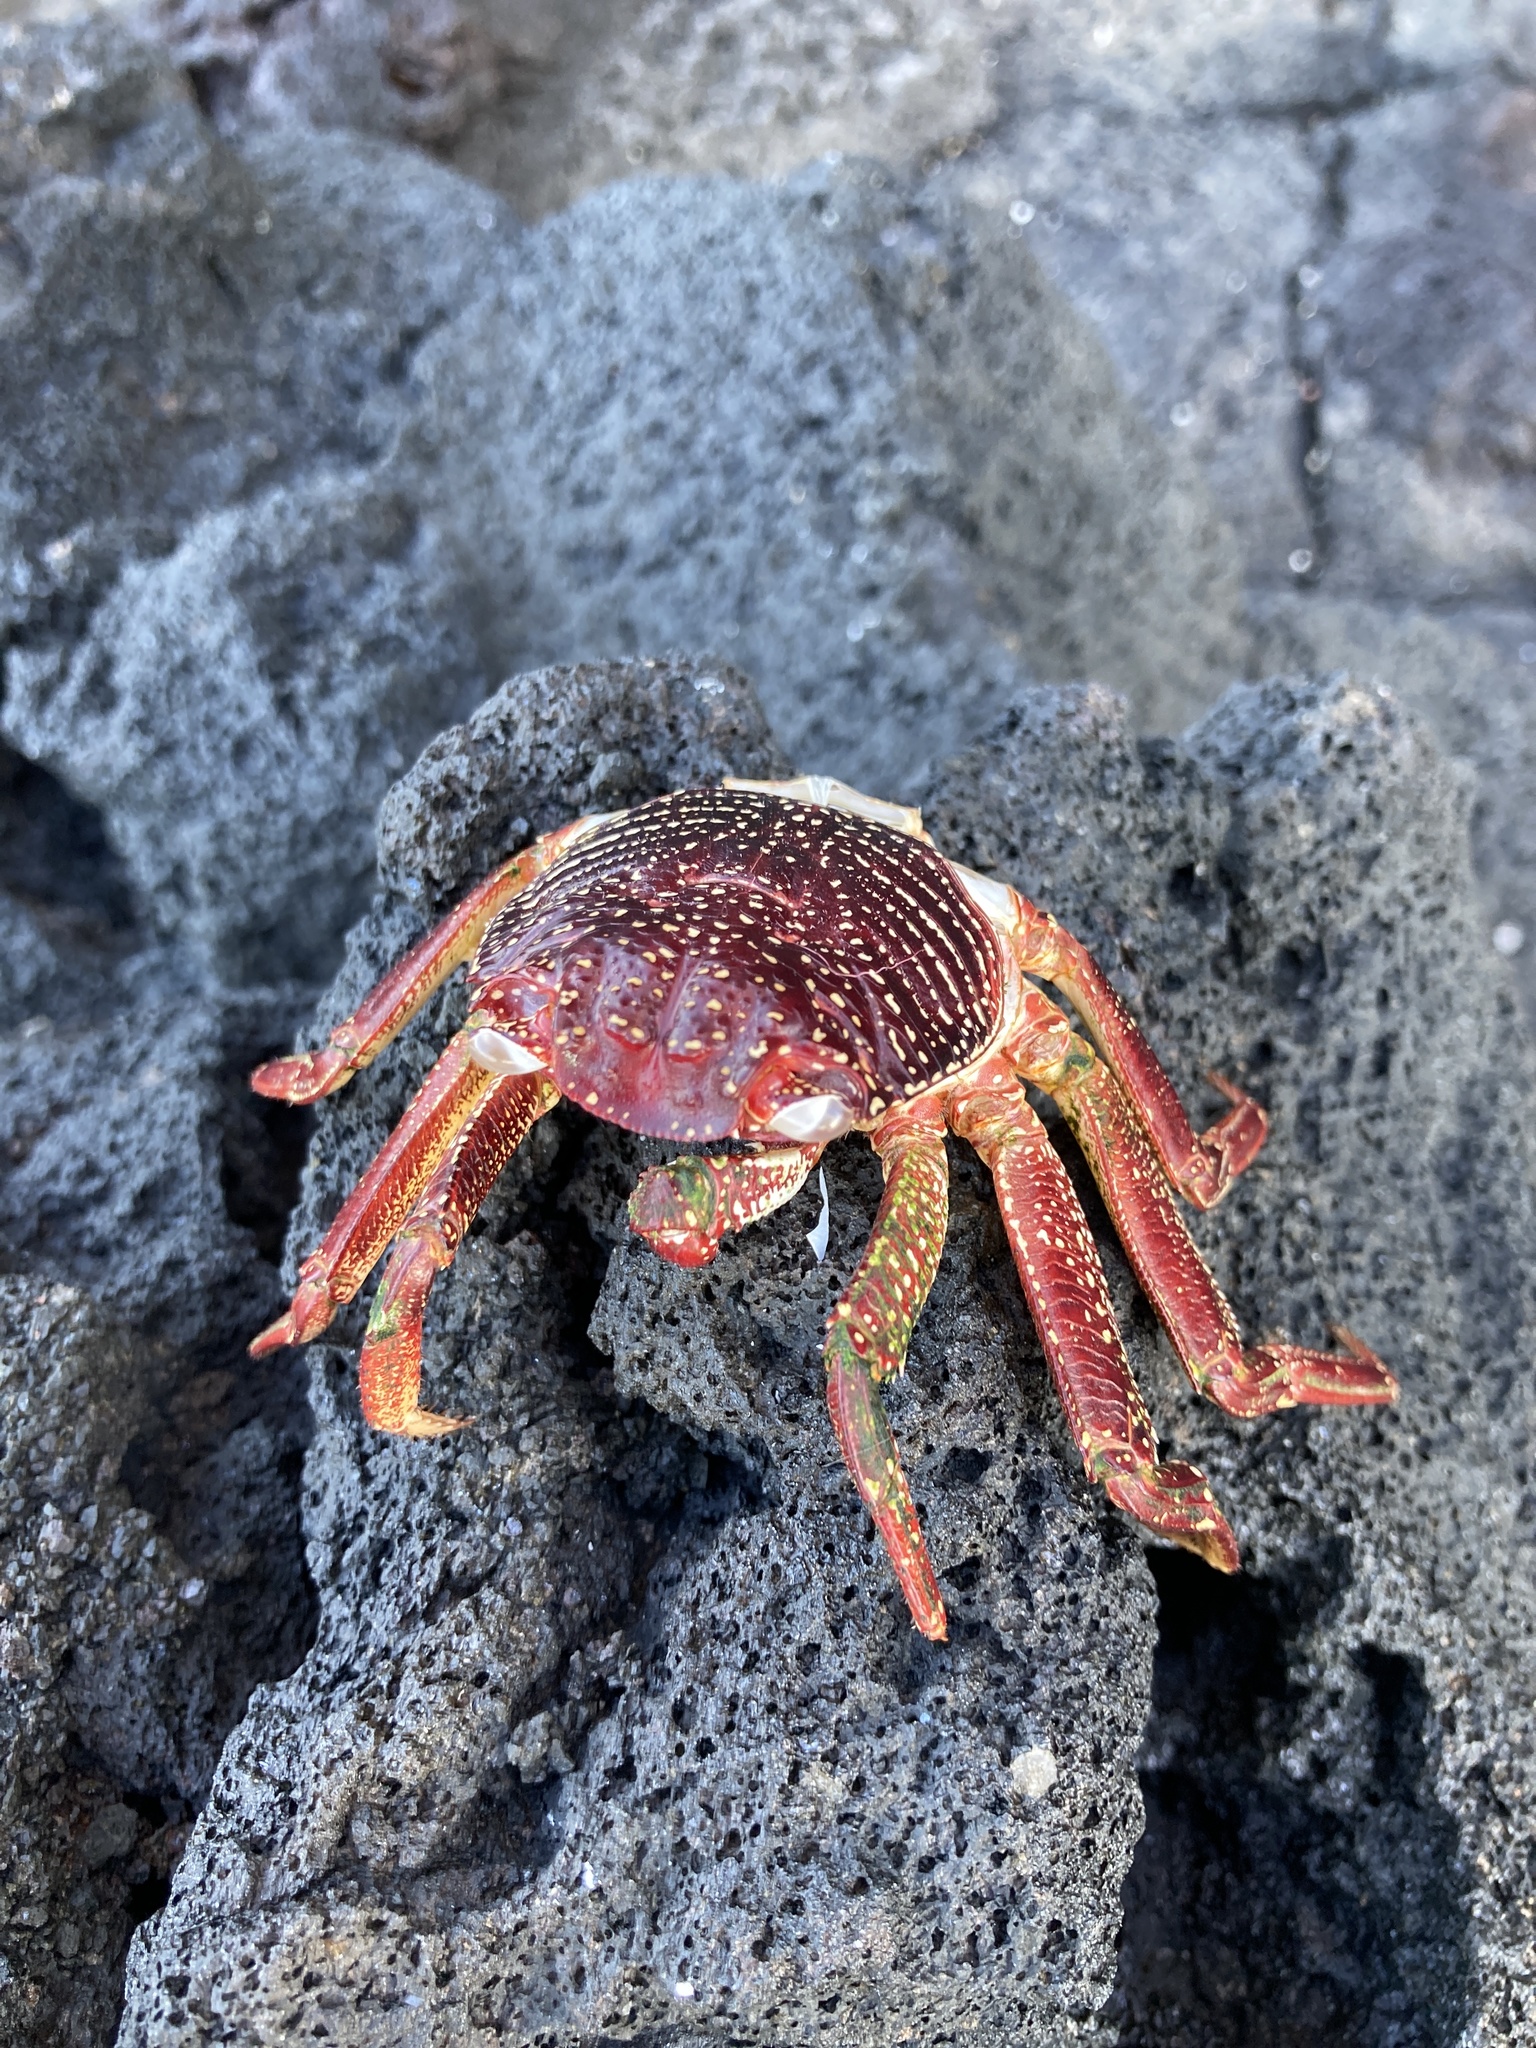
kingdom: Animalia
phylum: Arthropoda
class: Malacostraca
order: Decapoda
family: Grapsidae
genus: Grapsus
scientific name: Grapsus tenuicrustatus
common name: Natal lightfoot crab
